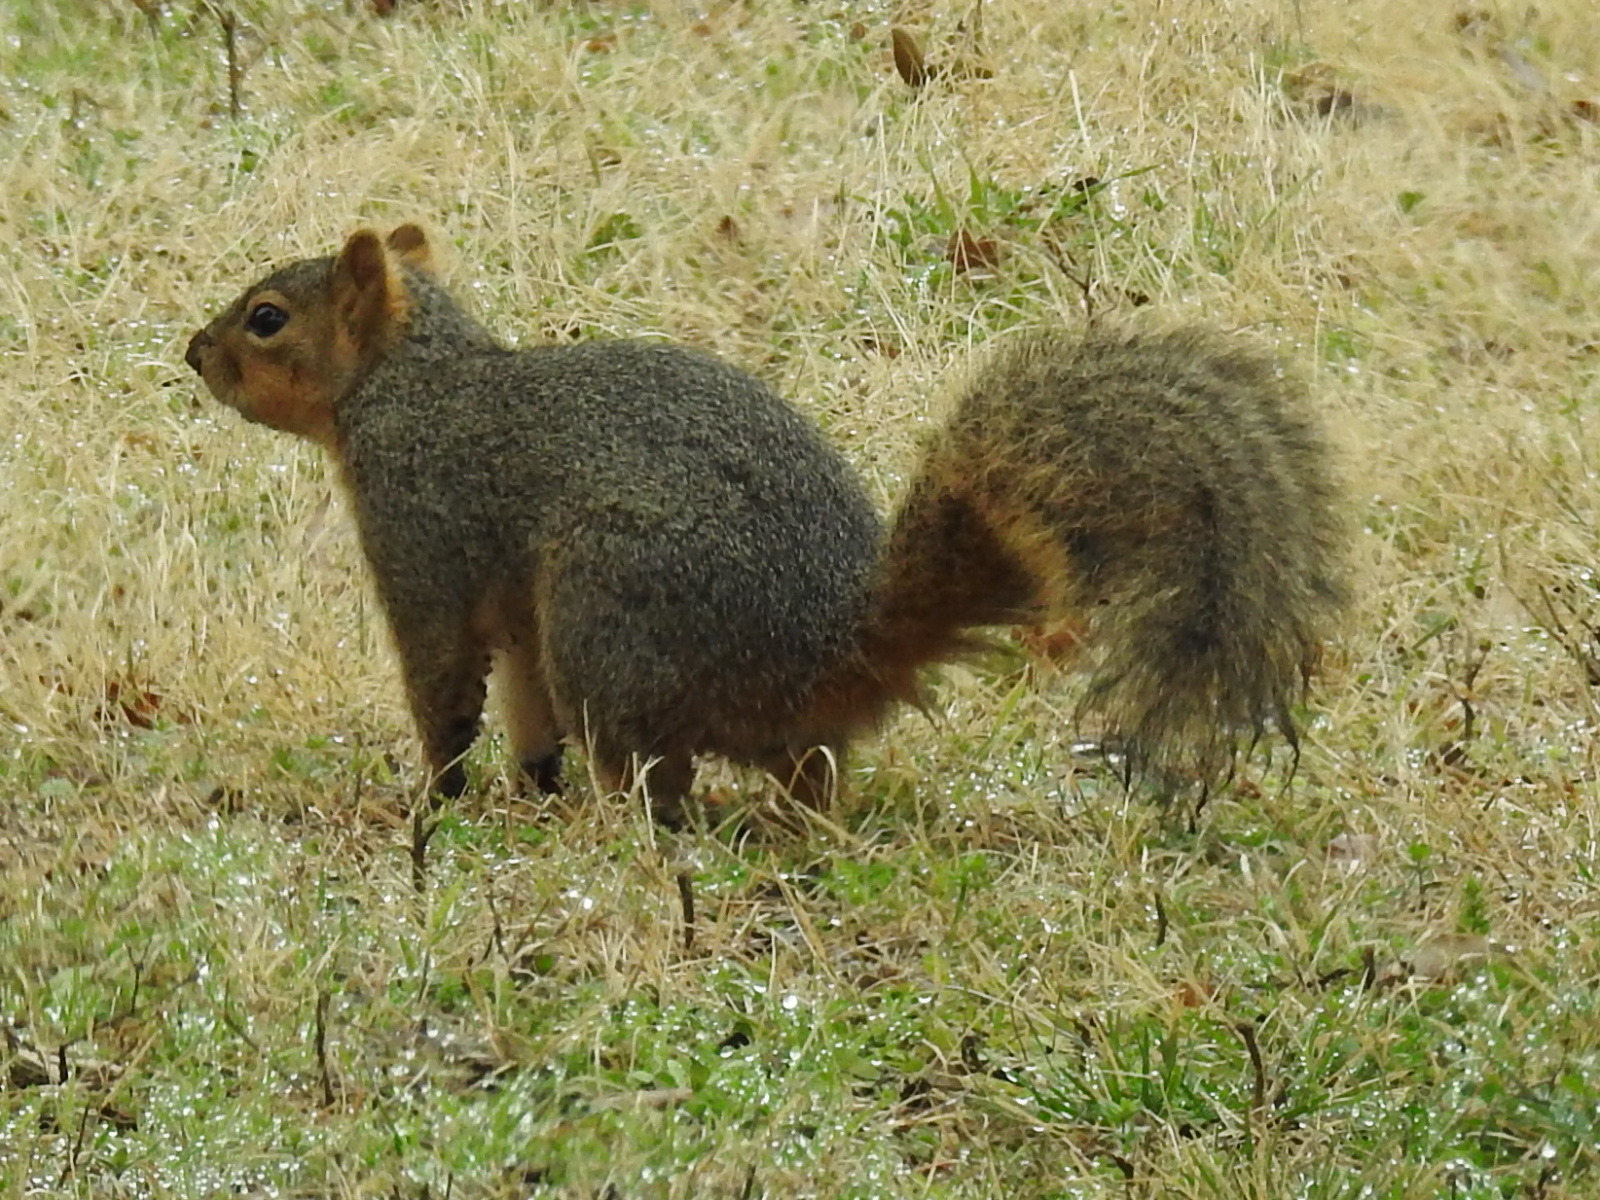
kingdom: Animalia
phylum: Chordata
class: Mammalia
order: Rodentia
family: Sciuridae
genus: Sciurus
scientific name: Sciurus niger
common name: Fox squirrel
